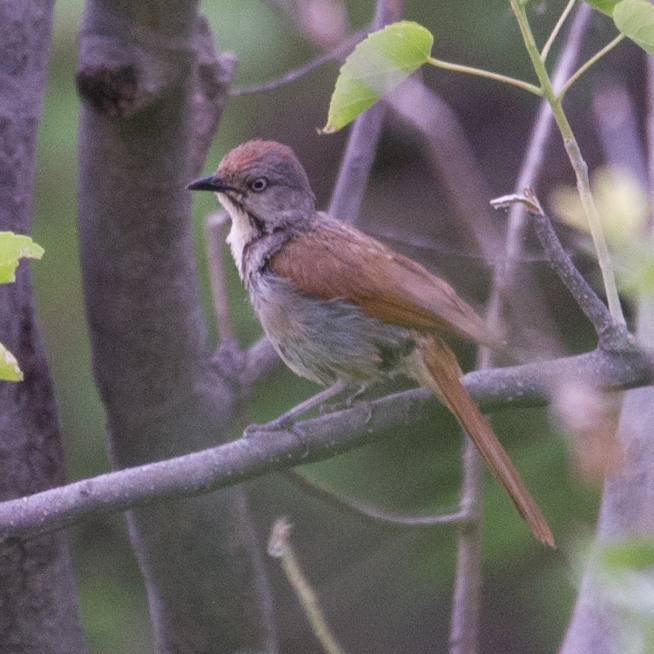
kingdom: Animalia
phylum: Chordata
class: Aves
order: Passeriformes
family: Muscicapidae
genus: Cichladusa
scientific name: Cichladusa arquata
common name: Collared palm thrush
